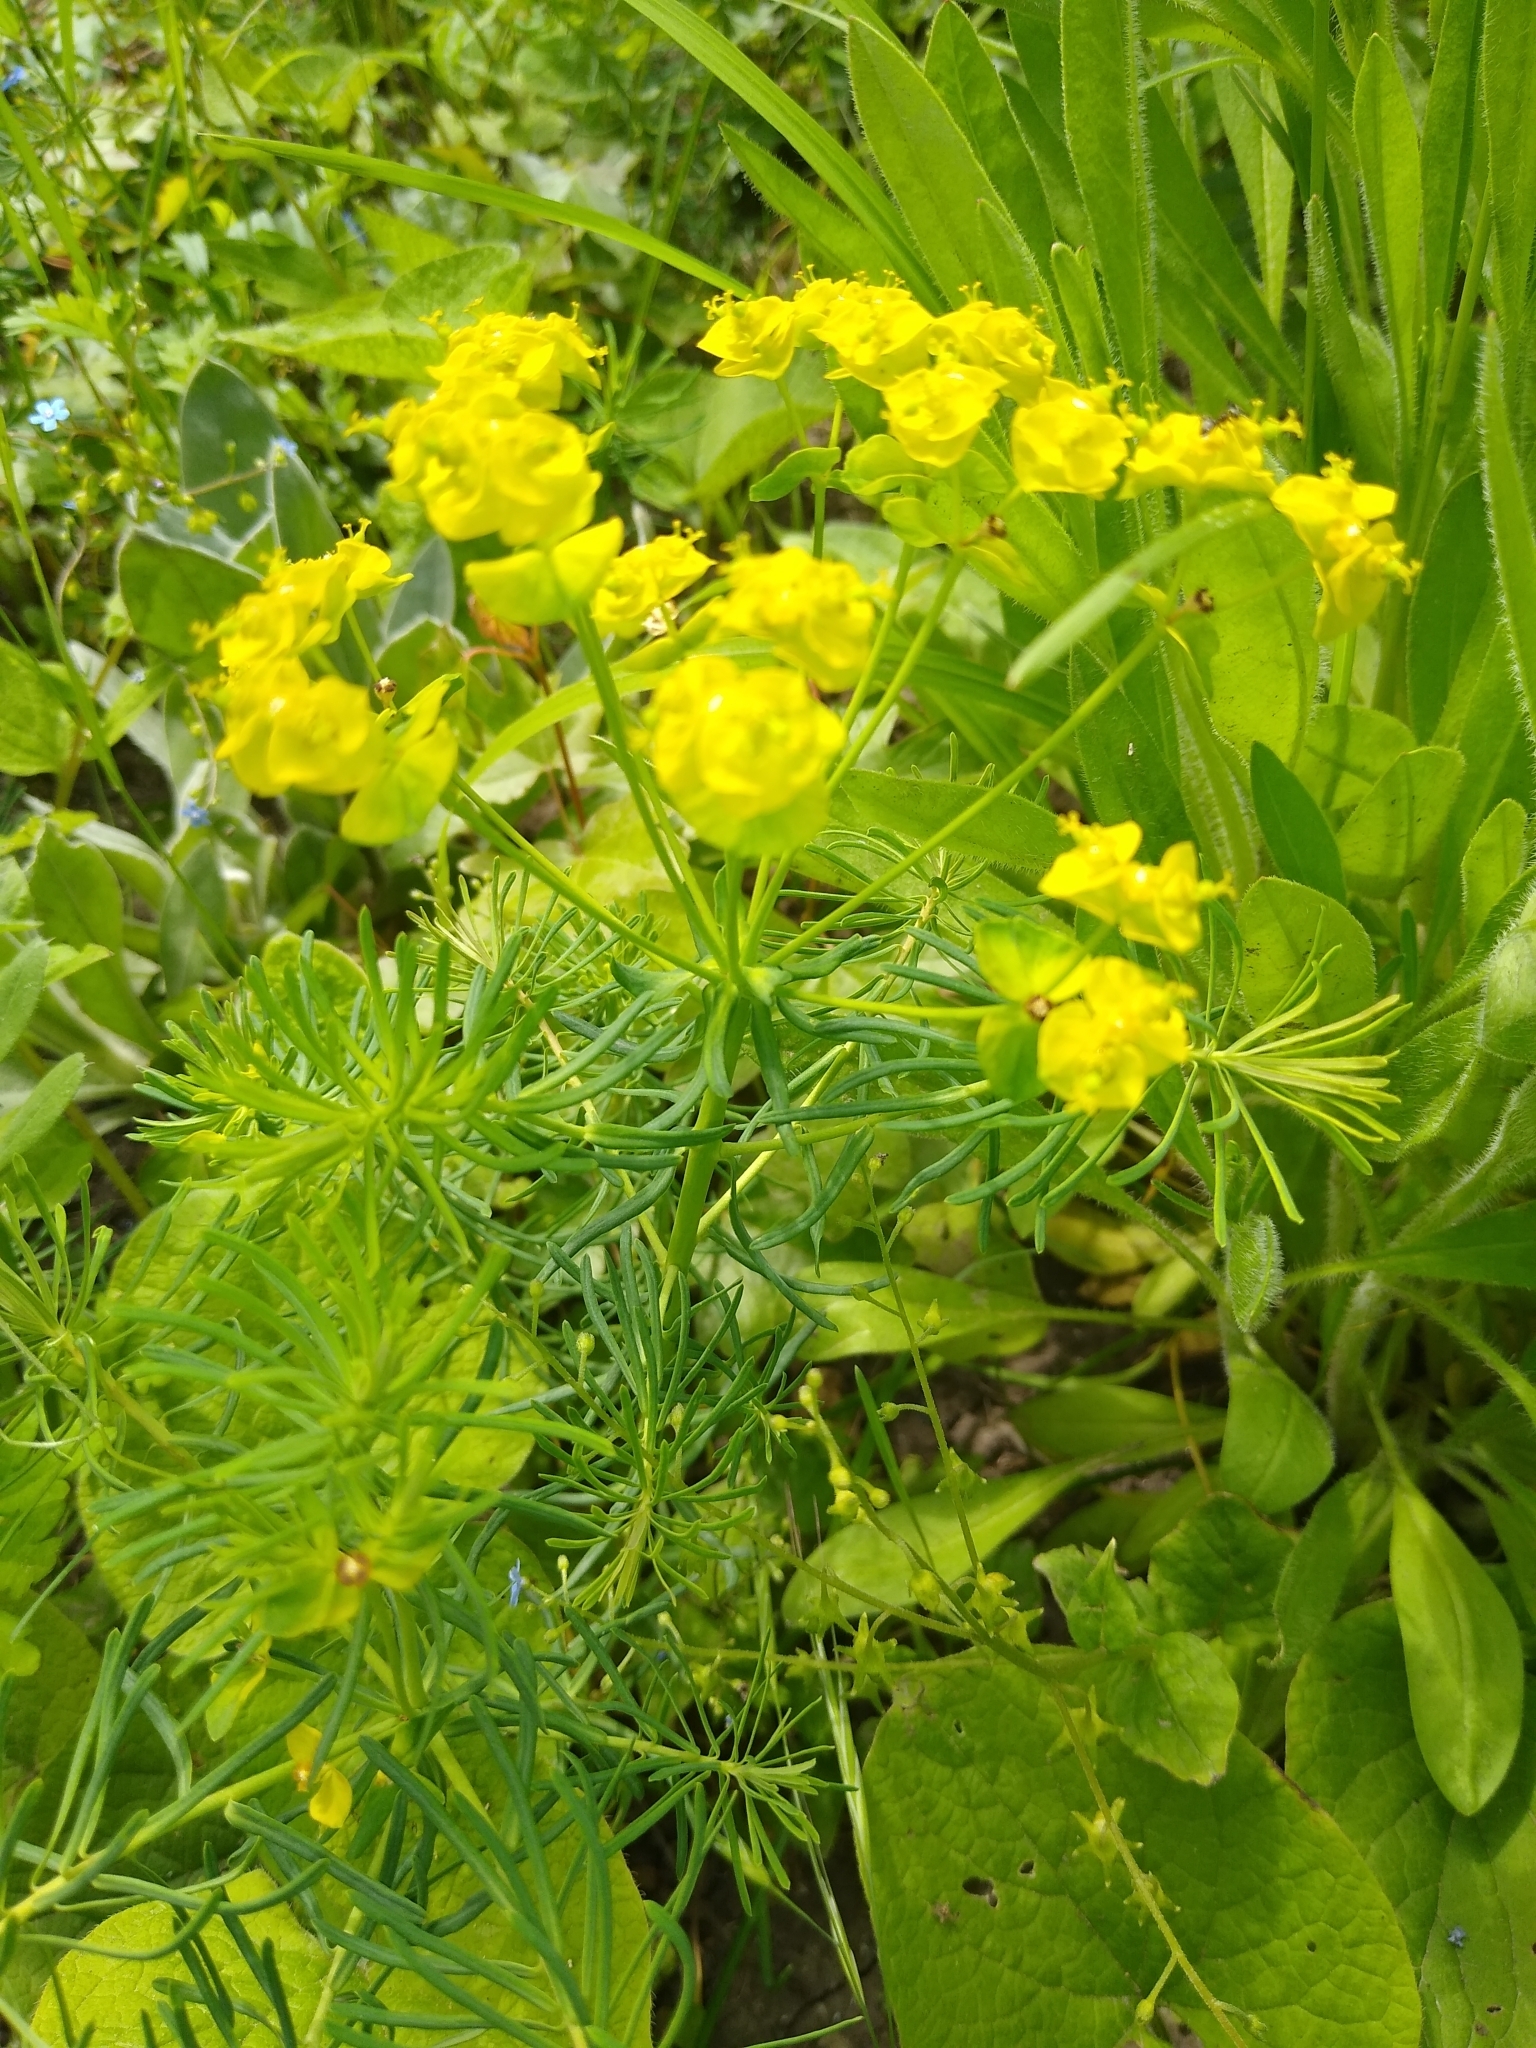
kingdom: Plantae
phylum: Tracheophyta
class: Magnoliopsida
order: Malpighiales
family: Euphorbiaceae
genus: Euphorbia
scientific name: Euphorbia cyparissias
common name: Cypress spurge
